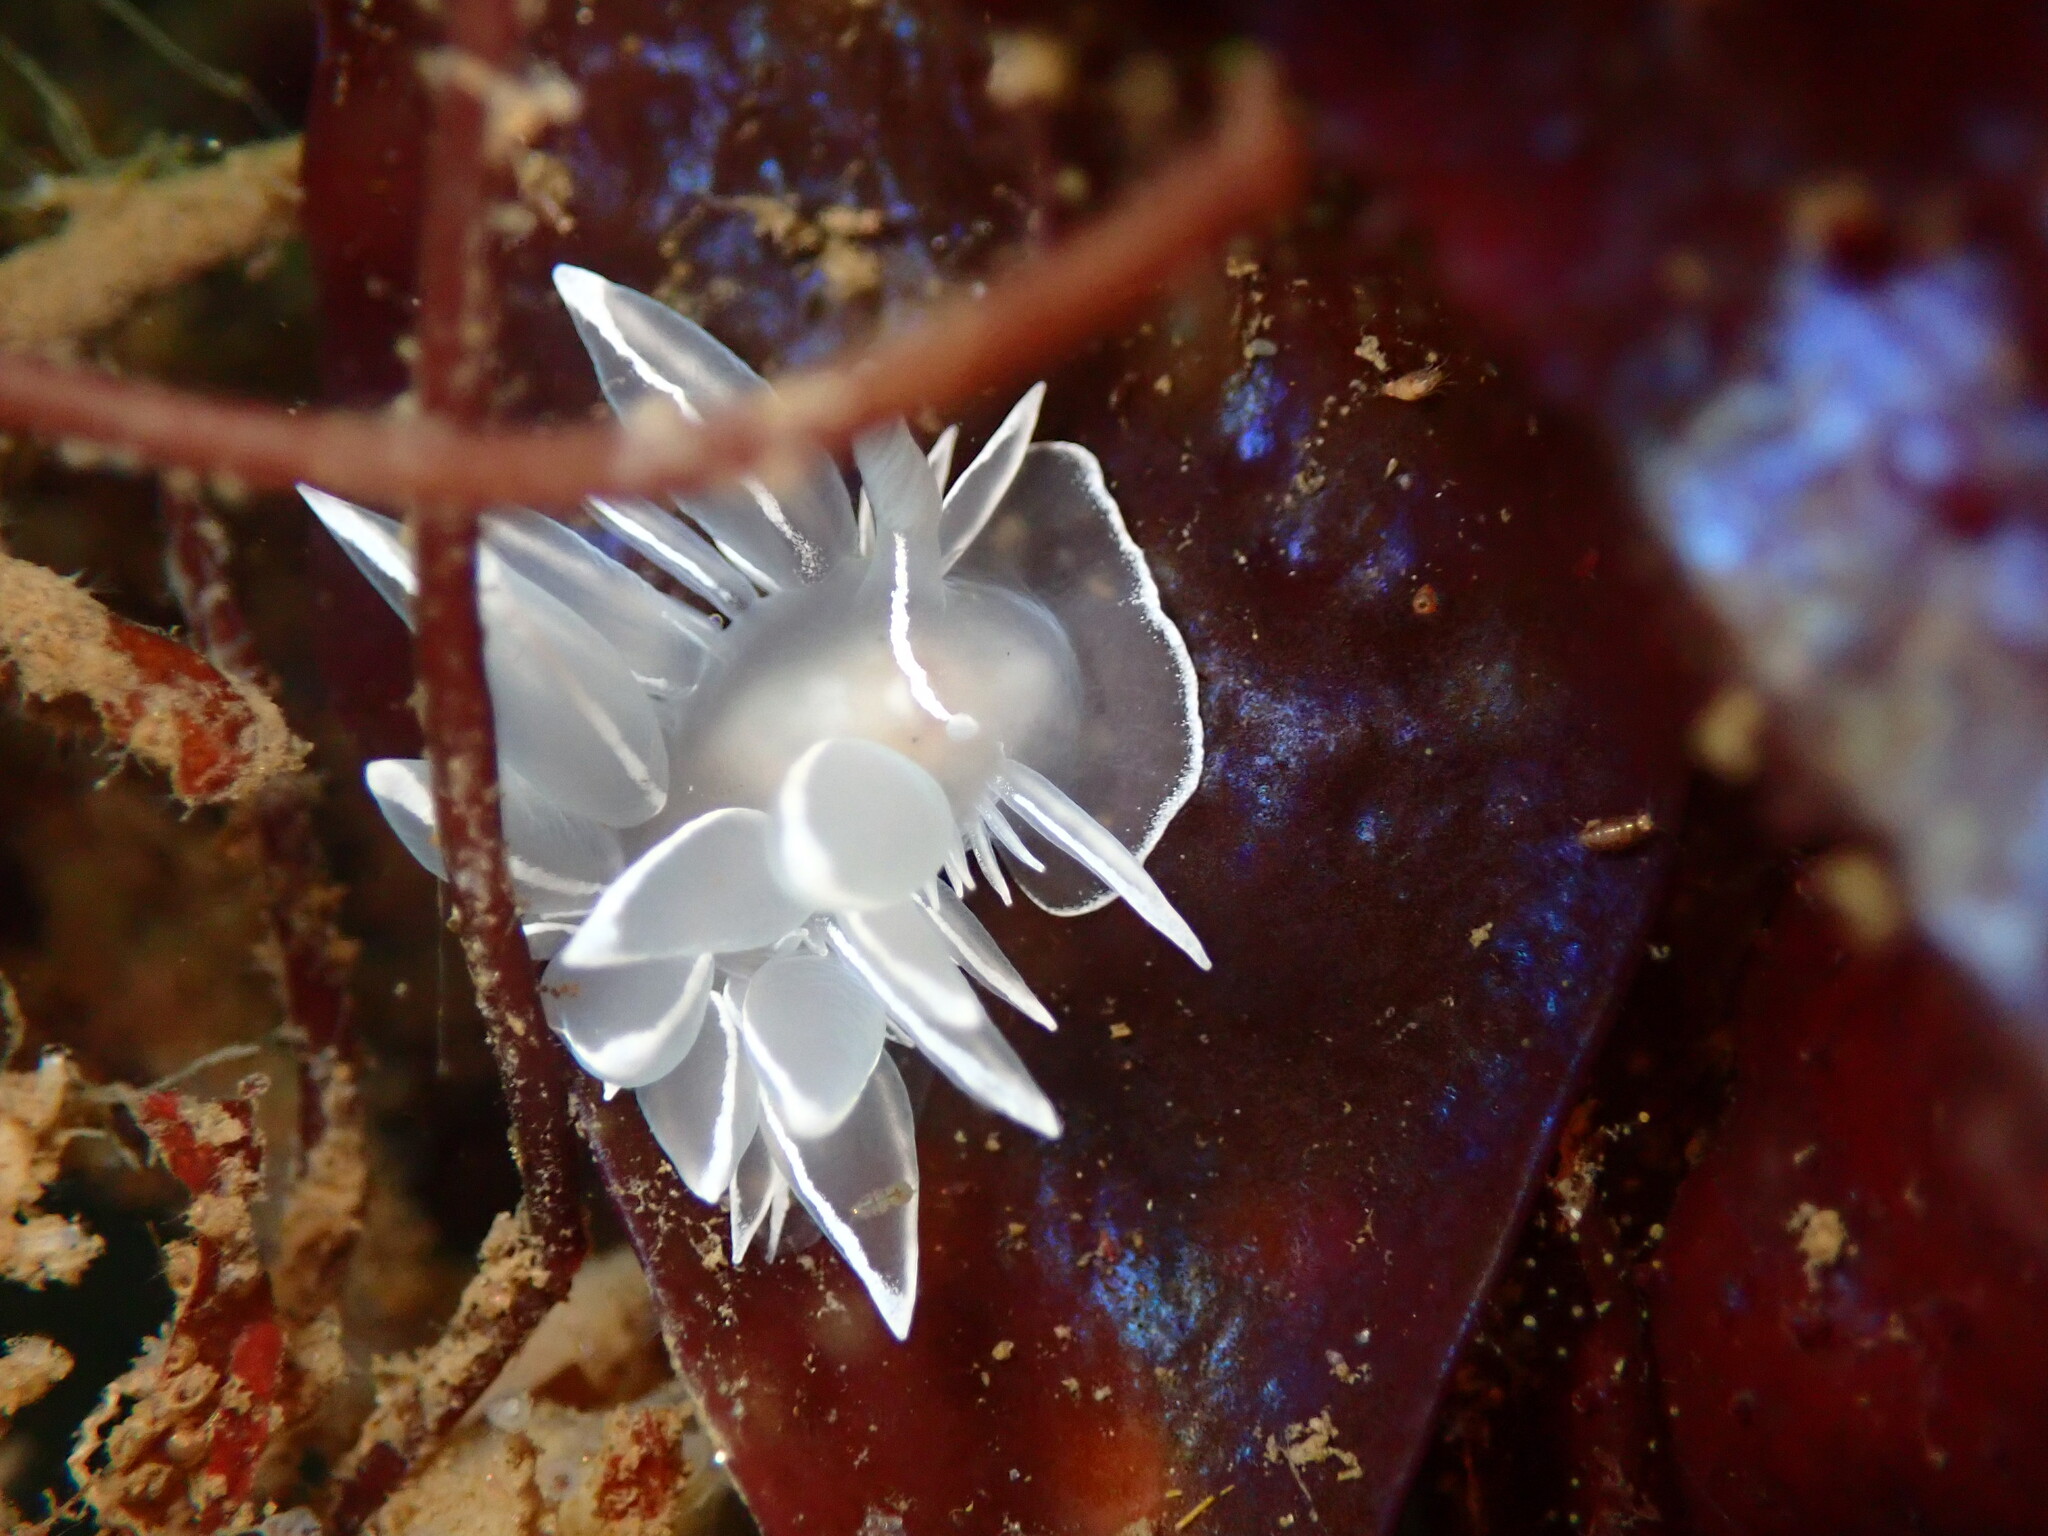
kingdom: Animalia
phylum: Mollusca
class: Gastropoda
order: Nudibranchia
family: Dironidae
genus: Dirona
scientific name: Dirona albolineata
